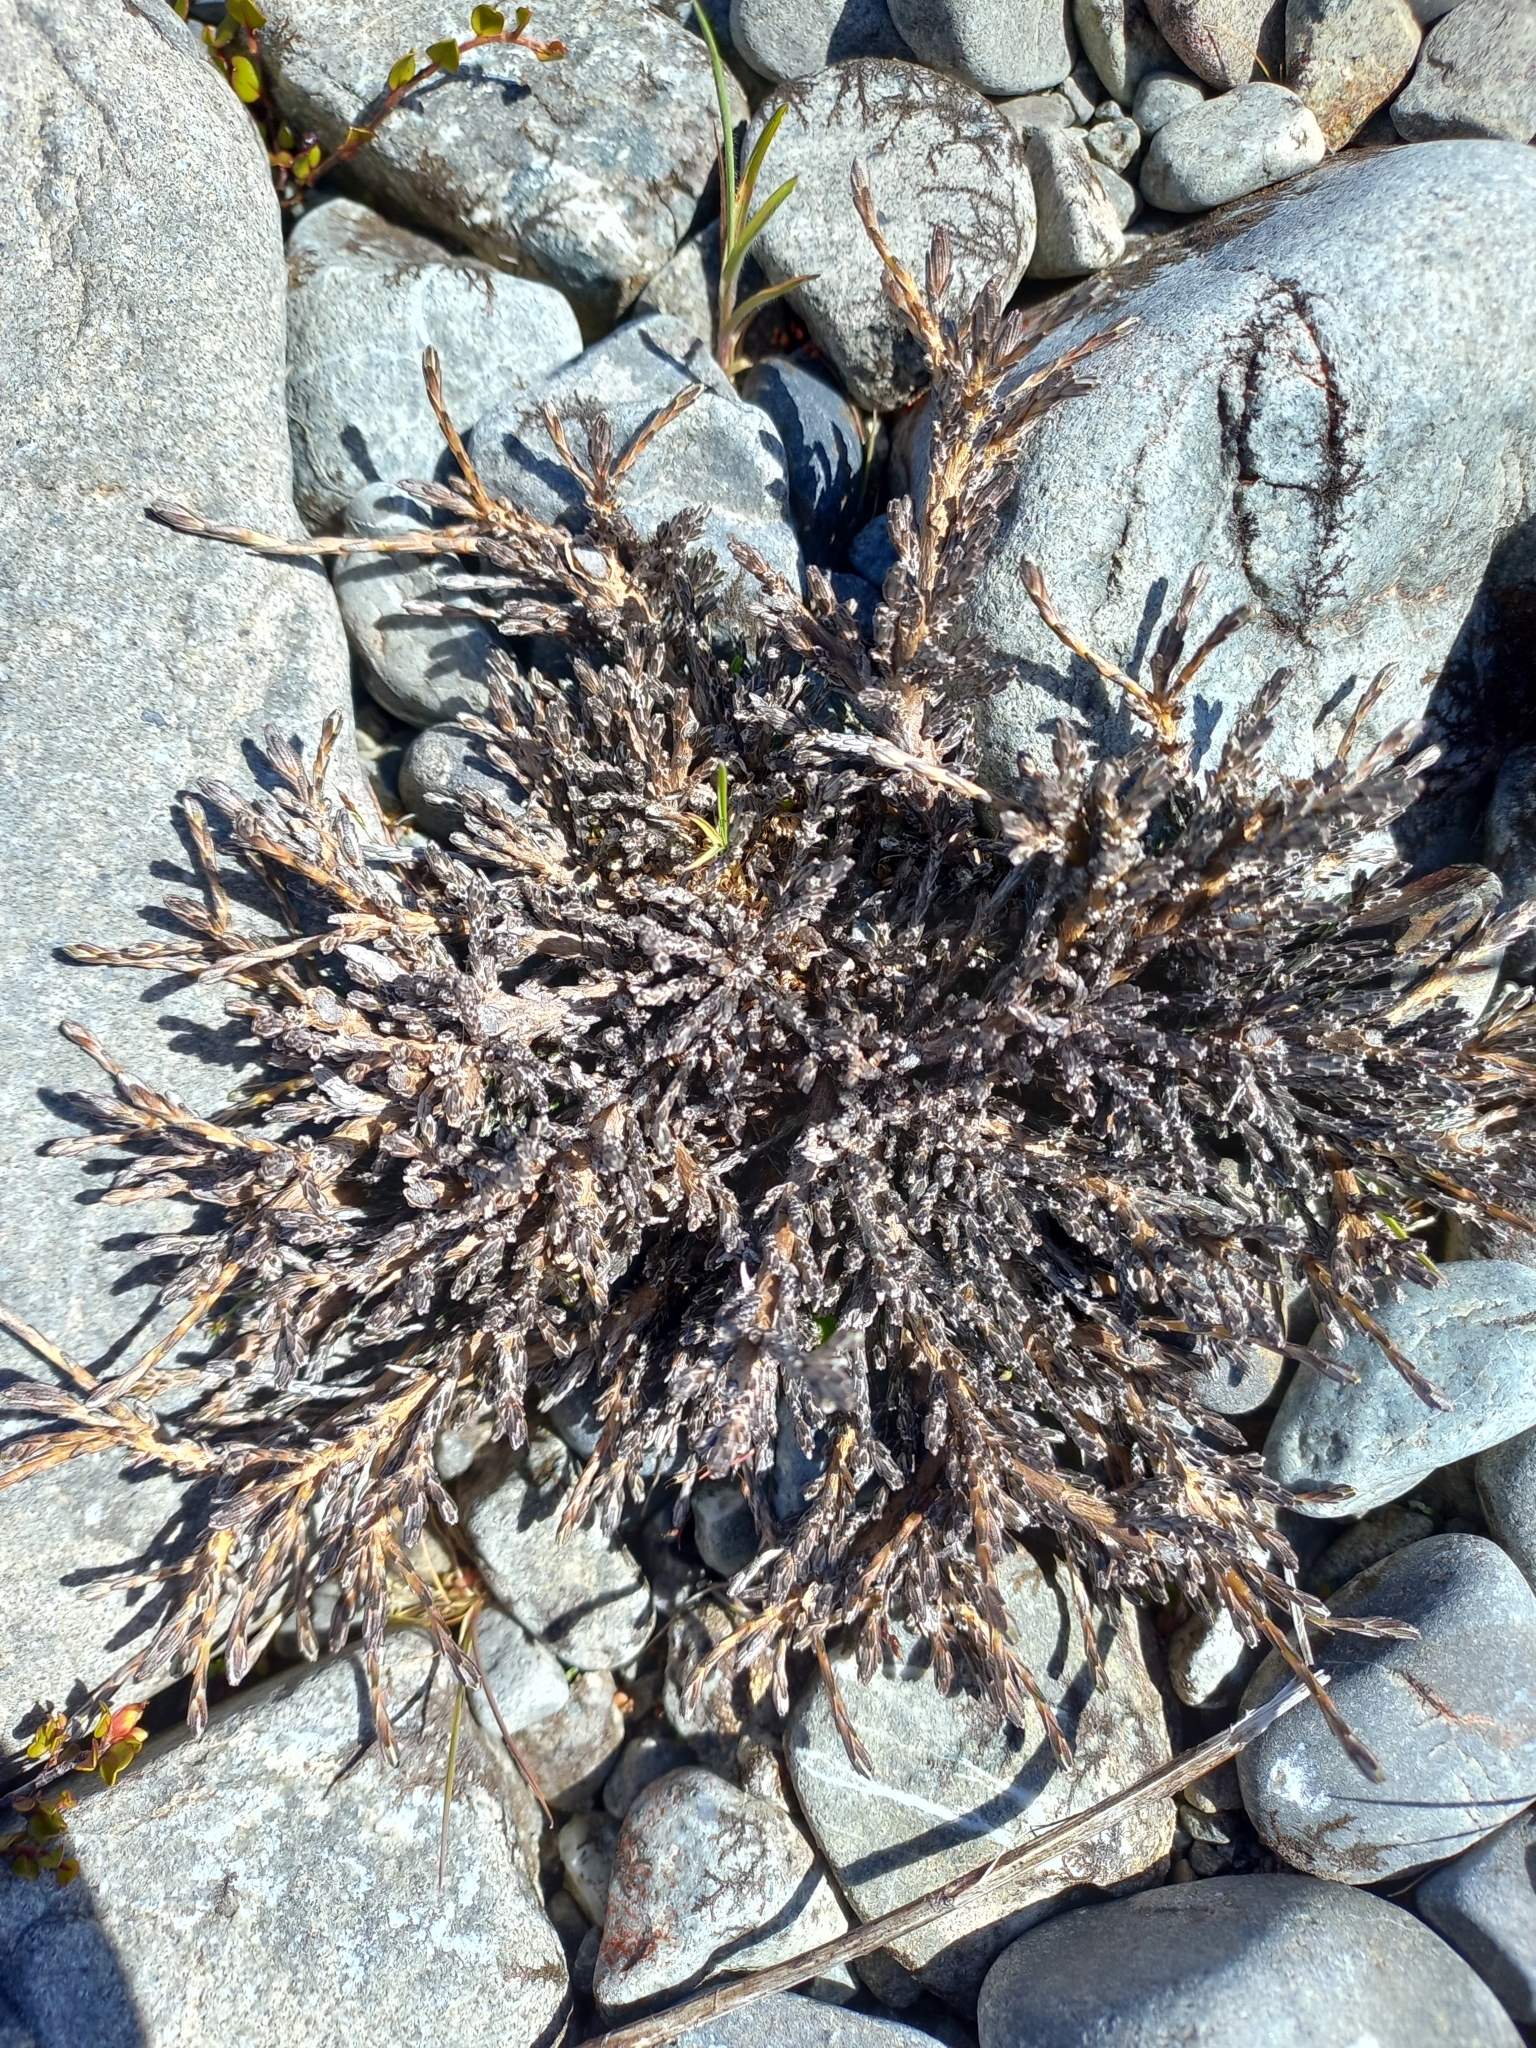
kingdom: Plantae
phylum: Tracheophyta
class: Magnoliopsida
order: Asterales
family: Asteraceae
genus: Ozothamnus
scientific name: Ozothamnus depressus
